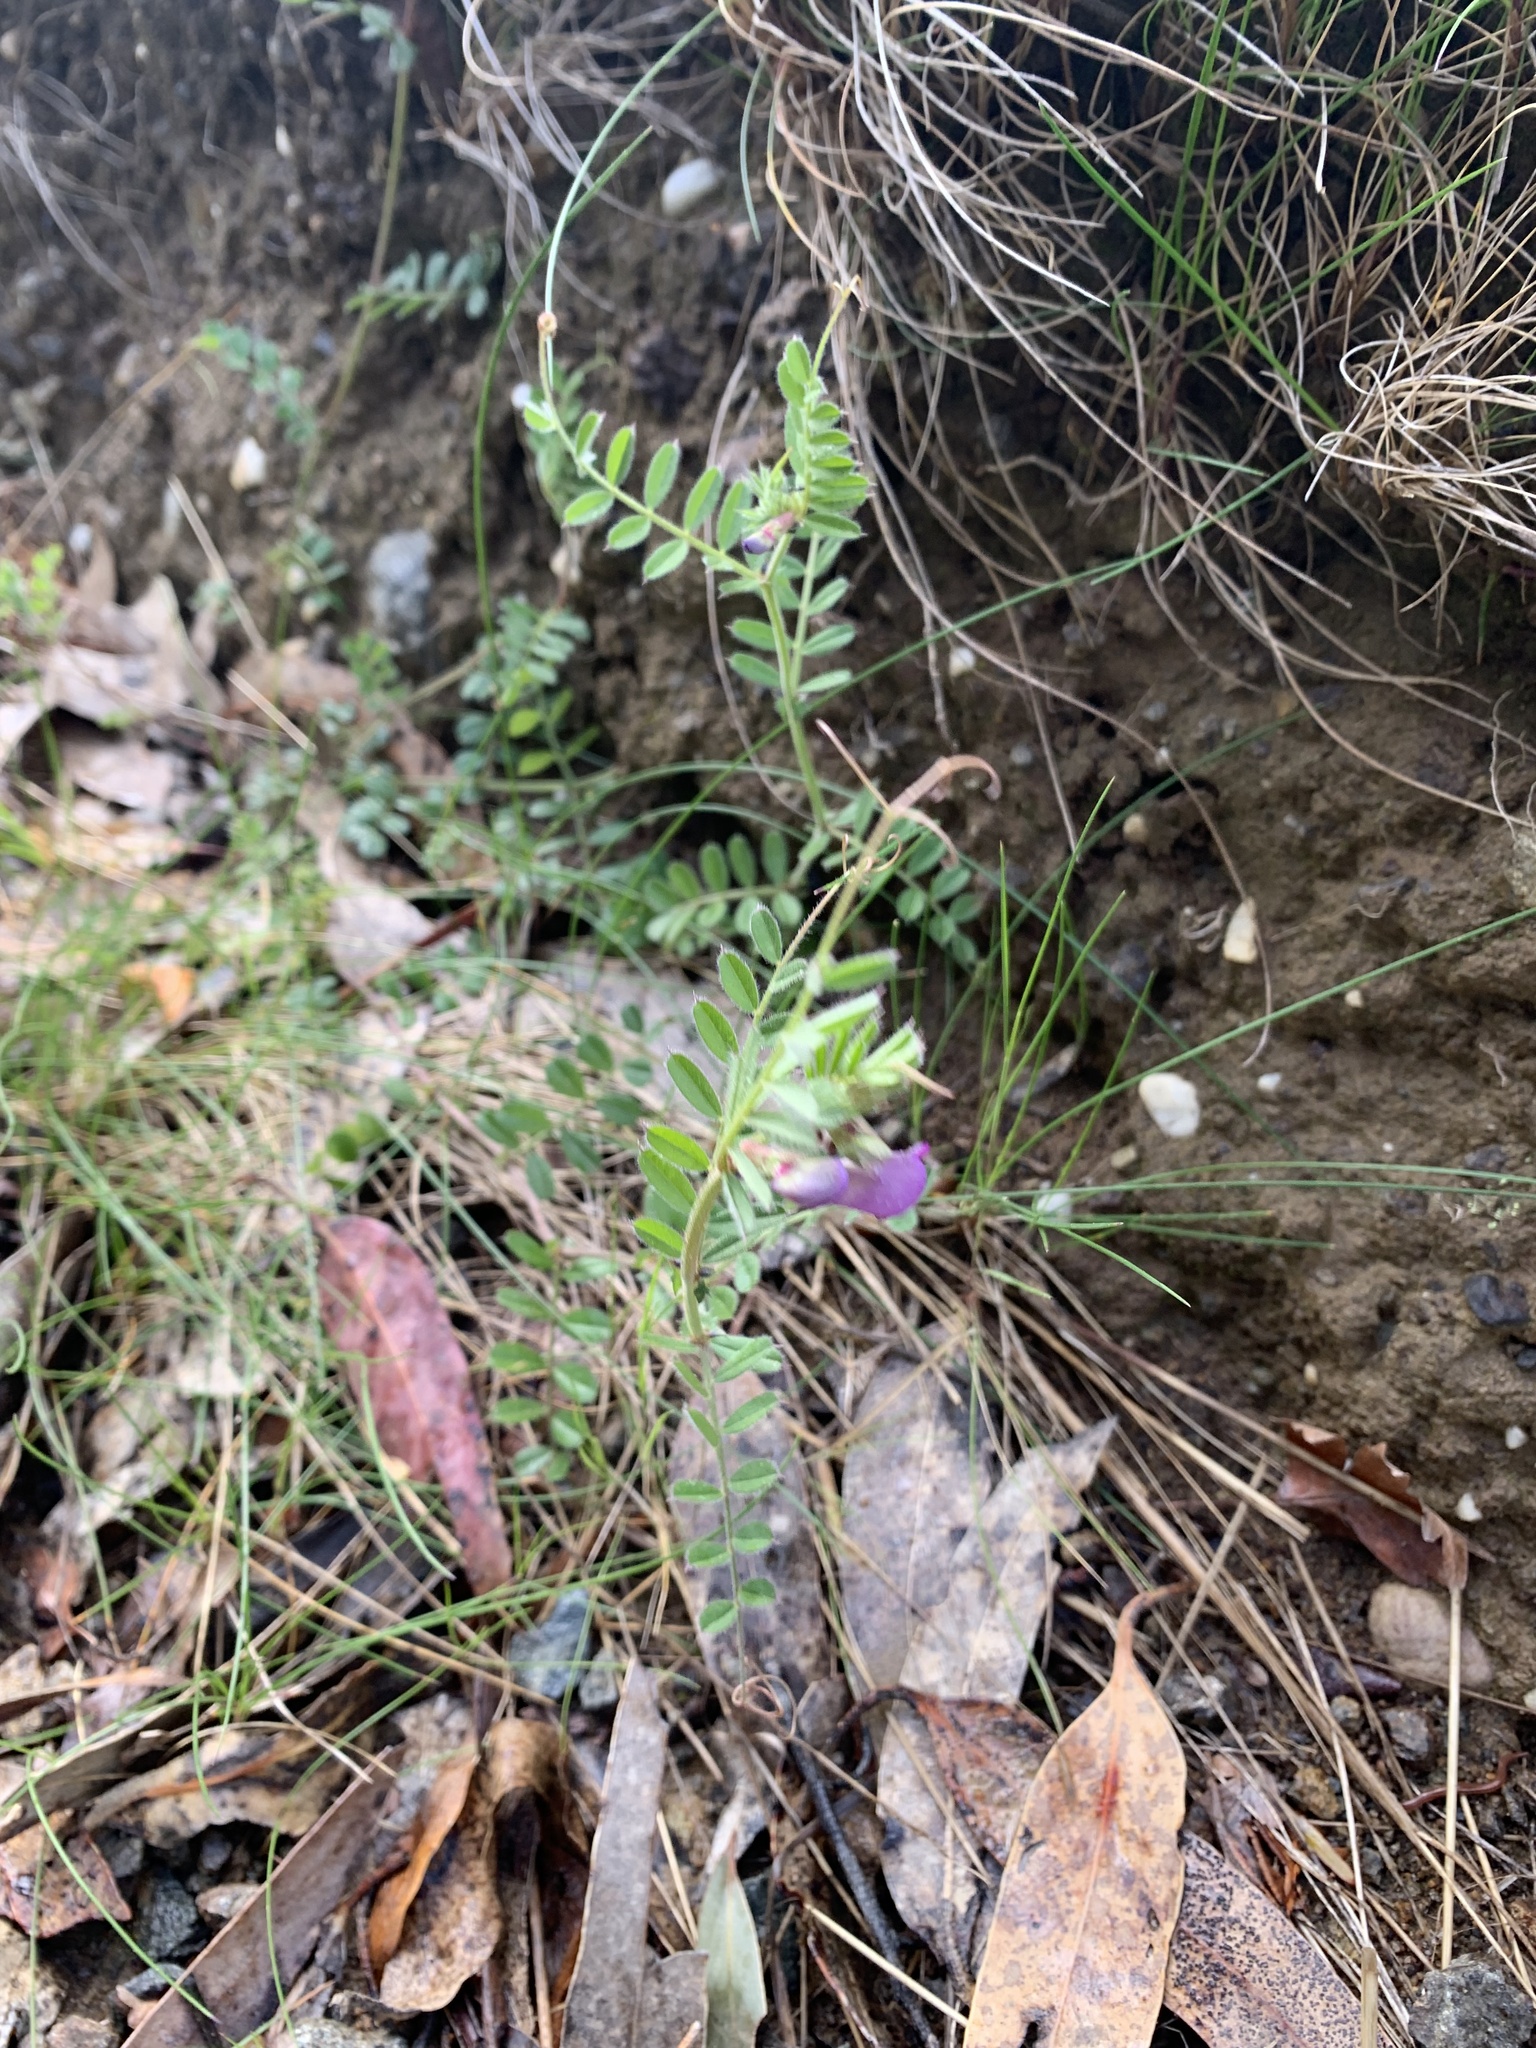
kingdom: Plantae
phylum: Tracheophyta
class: Magnoliopsida
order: Fabales
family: Fabaceae
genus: Vicia
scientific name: Vicia sativa
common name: Garden vetch
